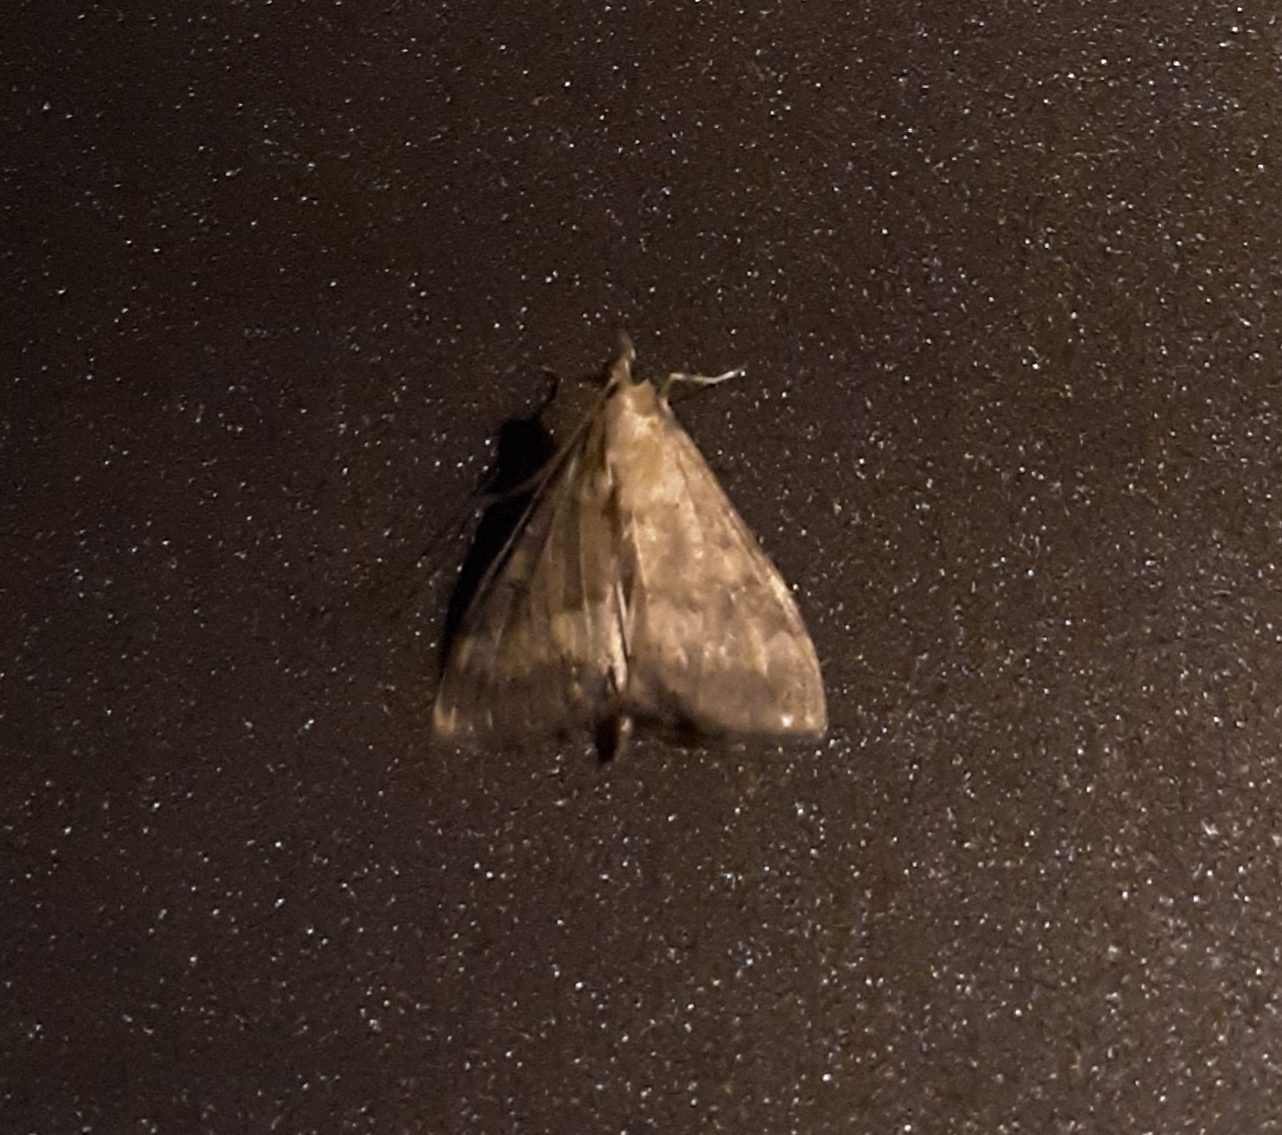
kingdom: Animalia
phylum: Arthropoda
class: Insecta
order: Lepidoptera
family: Crambidae
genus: Ostrinia
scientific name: Ostrinia nubilalis
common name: European corn borer
